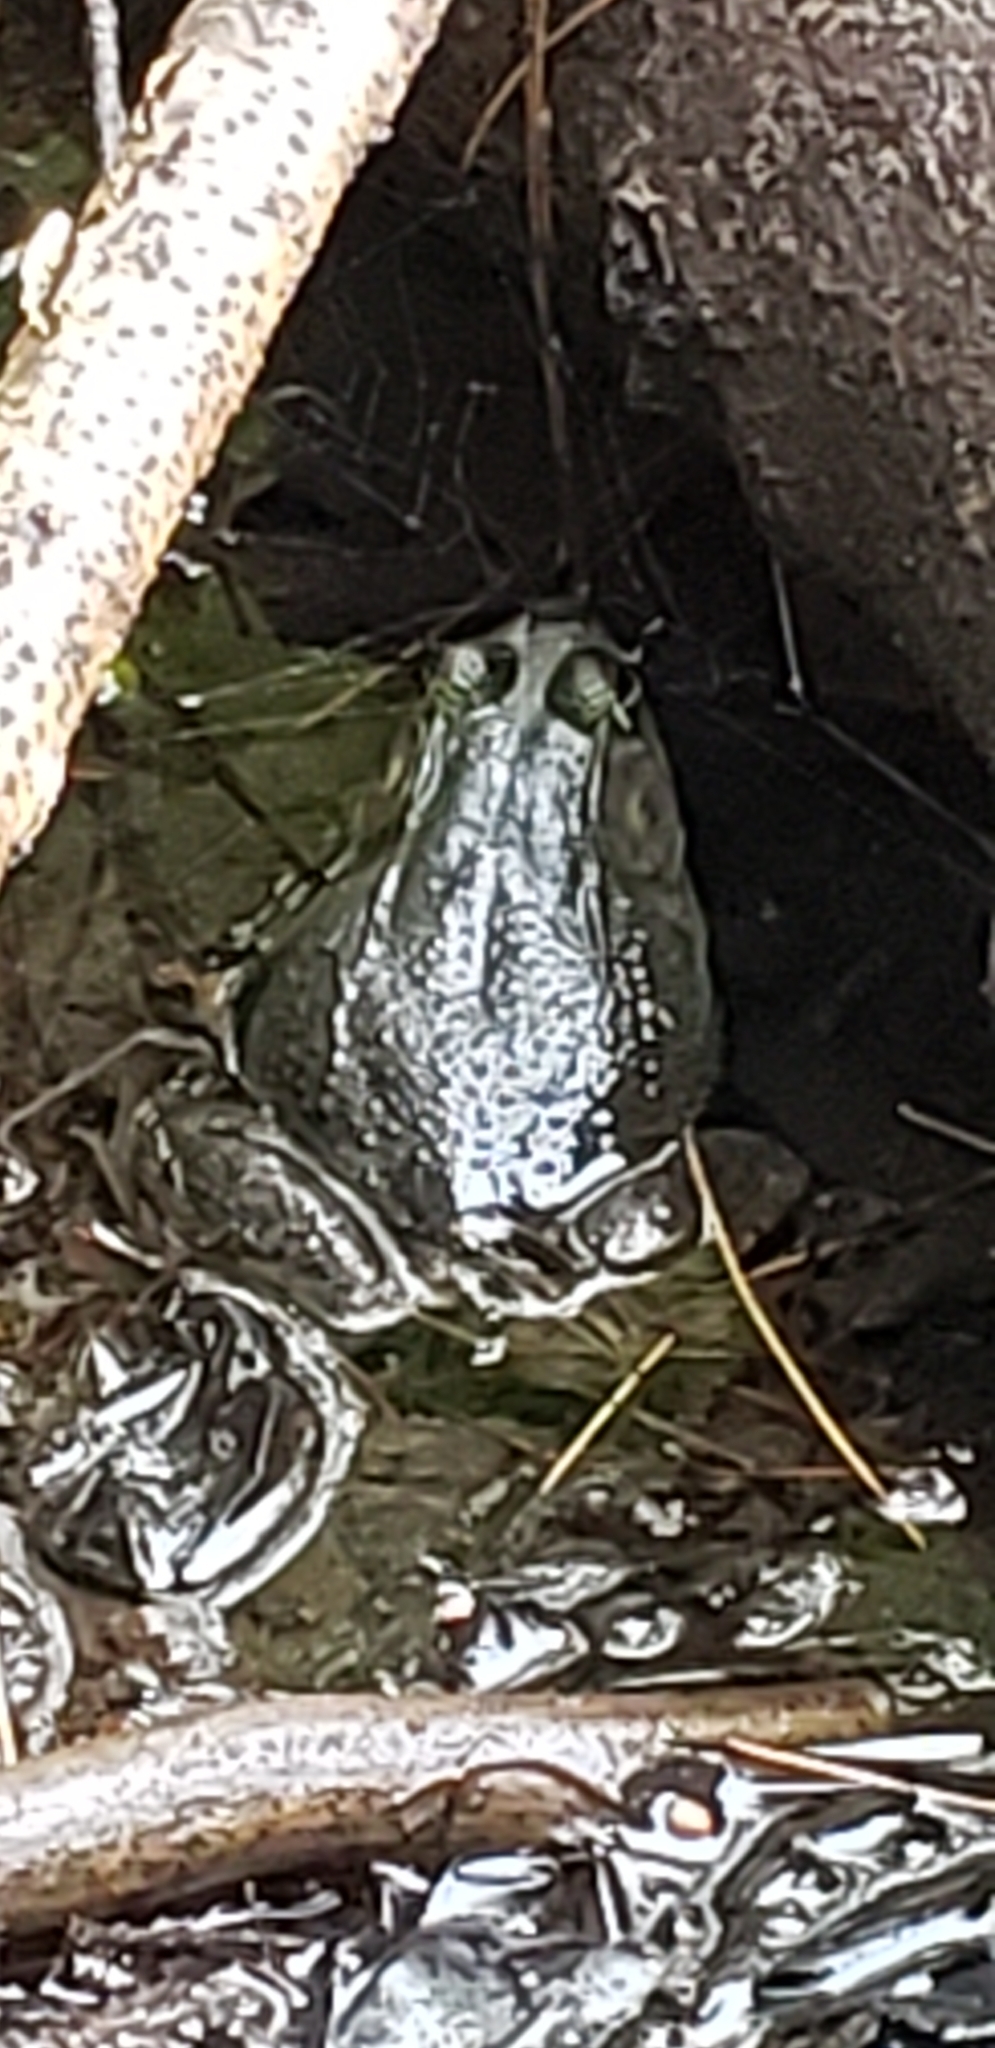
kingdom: Animalia
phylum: Chordata
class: Amphibia
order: Anura
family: Ranidae
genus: Lithobates
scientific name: Lithobates clamitans
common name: Green frog
